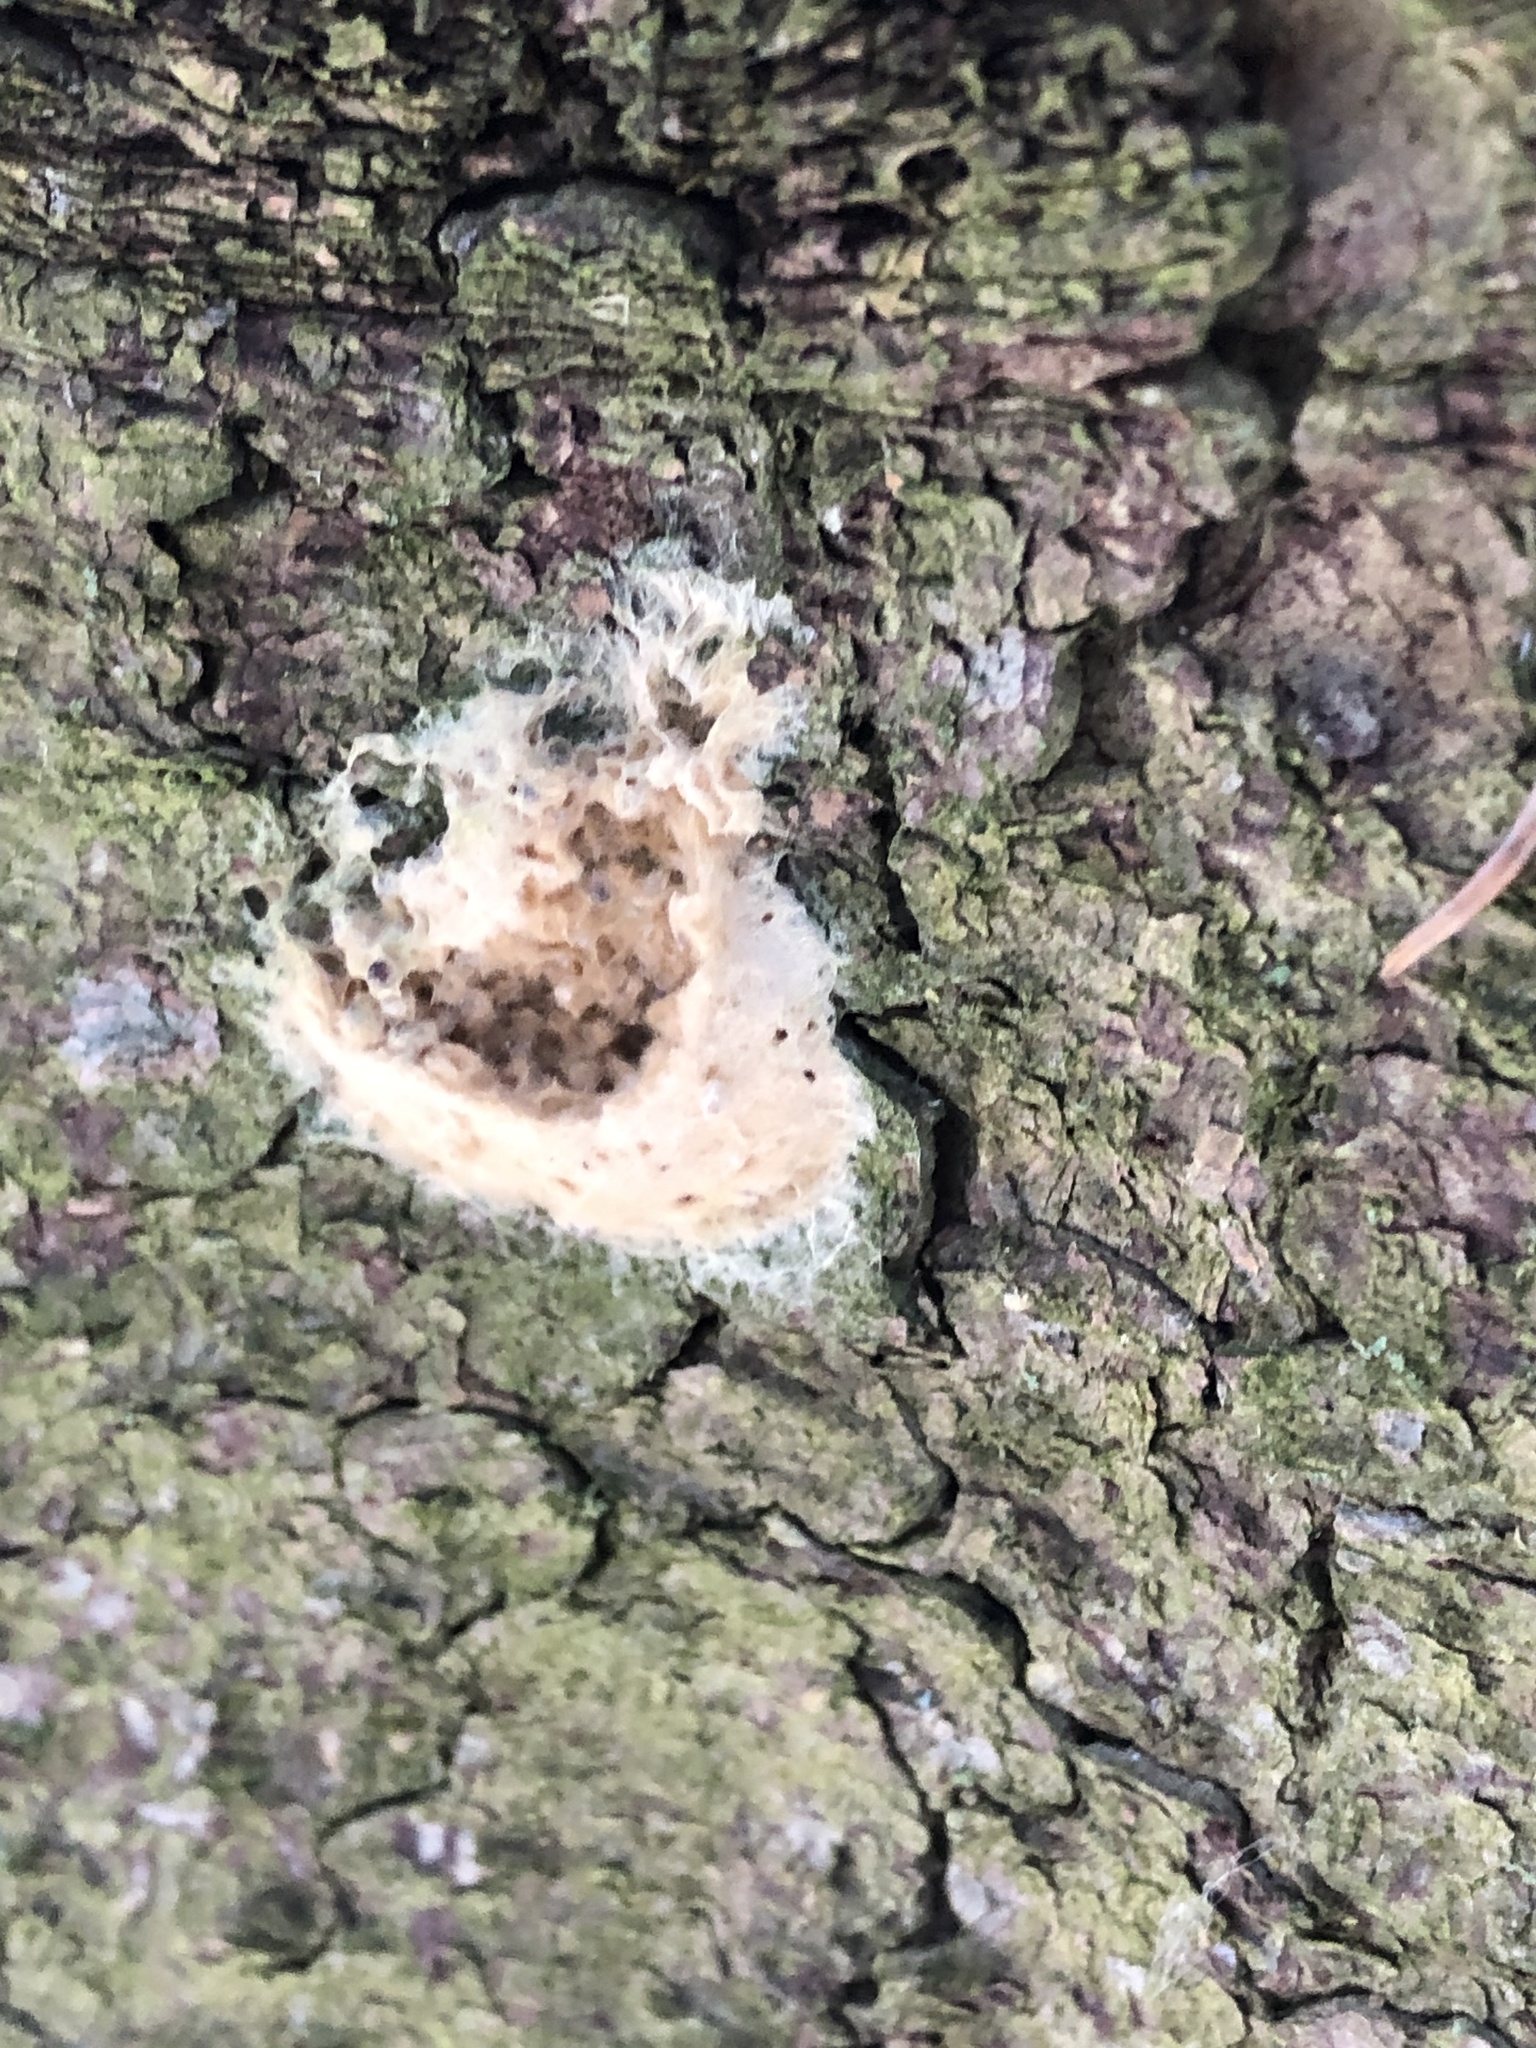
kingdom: Animalia
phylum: Arthropoda
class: Insecta
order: Lepidoptera
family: Erebidae
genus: Lymantria
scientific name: Lymantria dispar
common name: Gypsy moth
